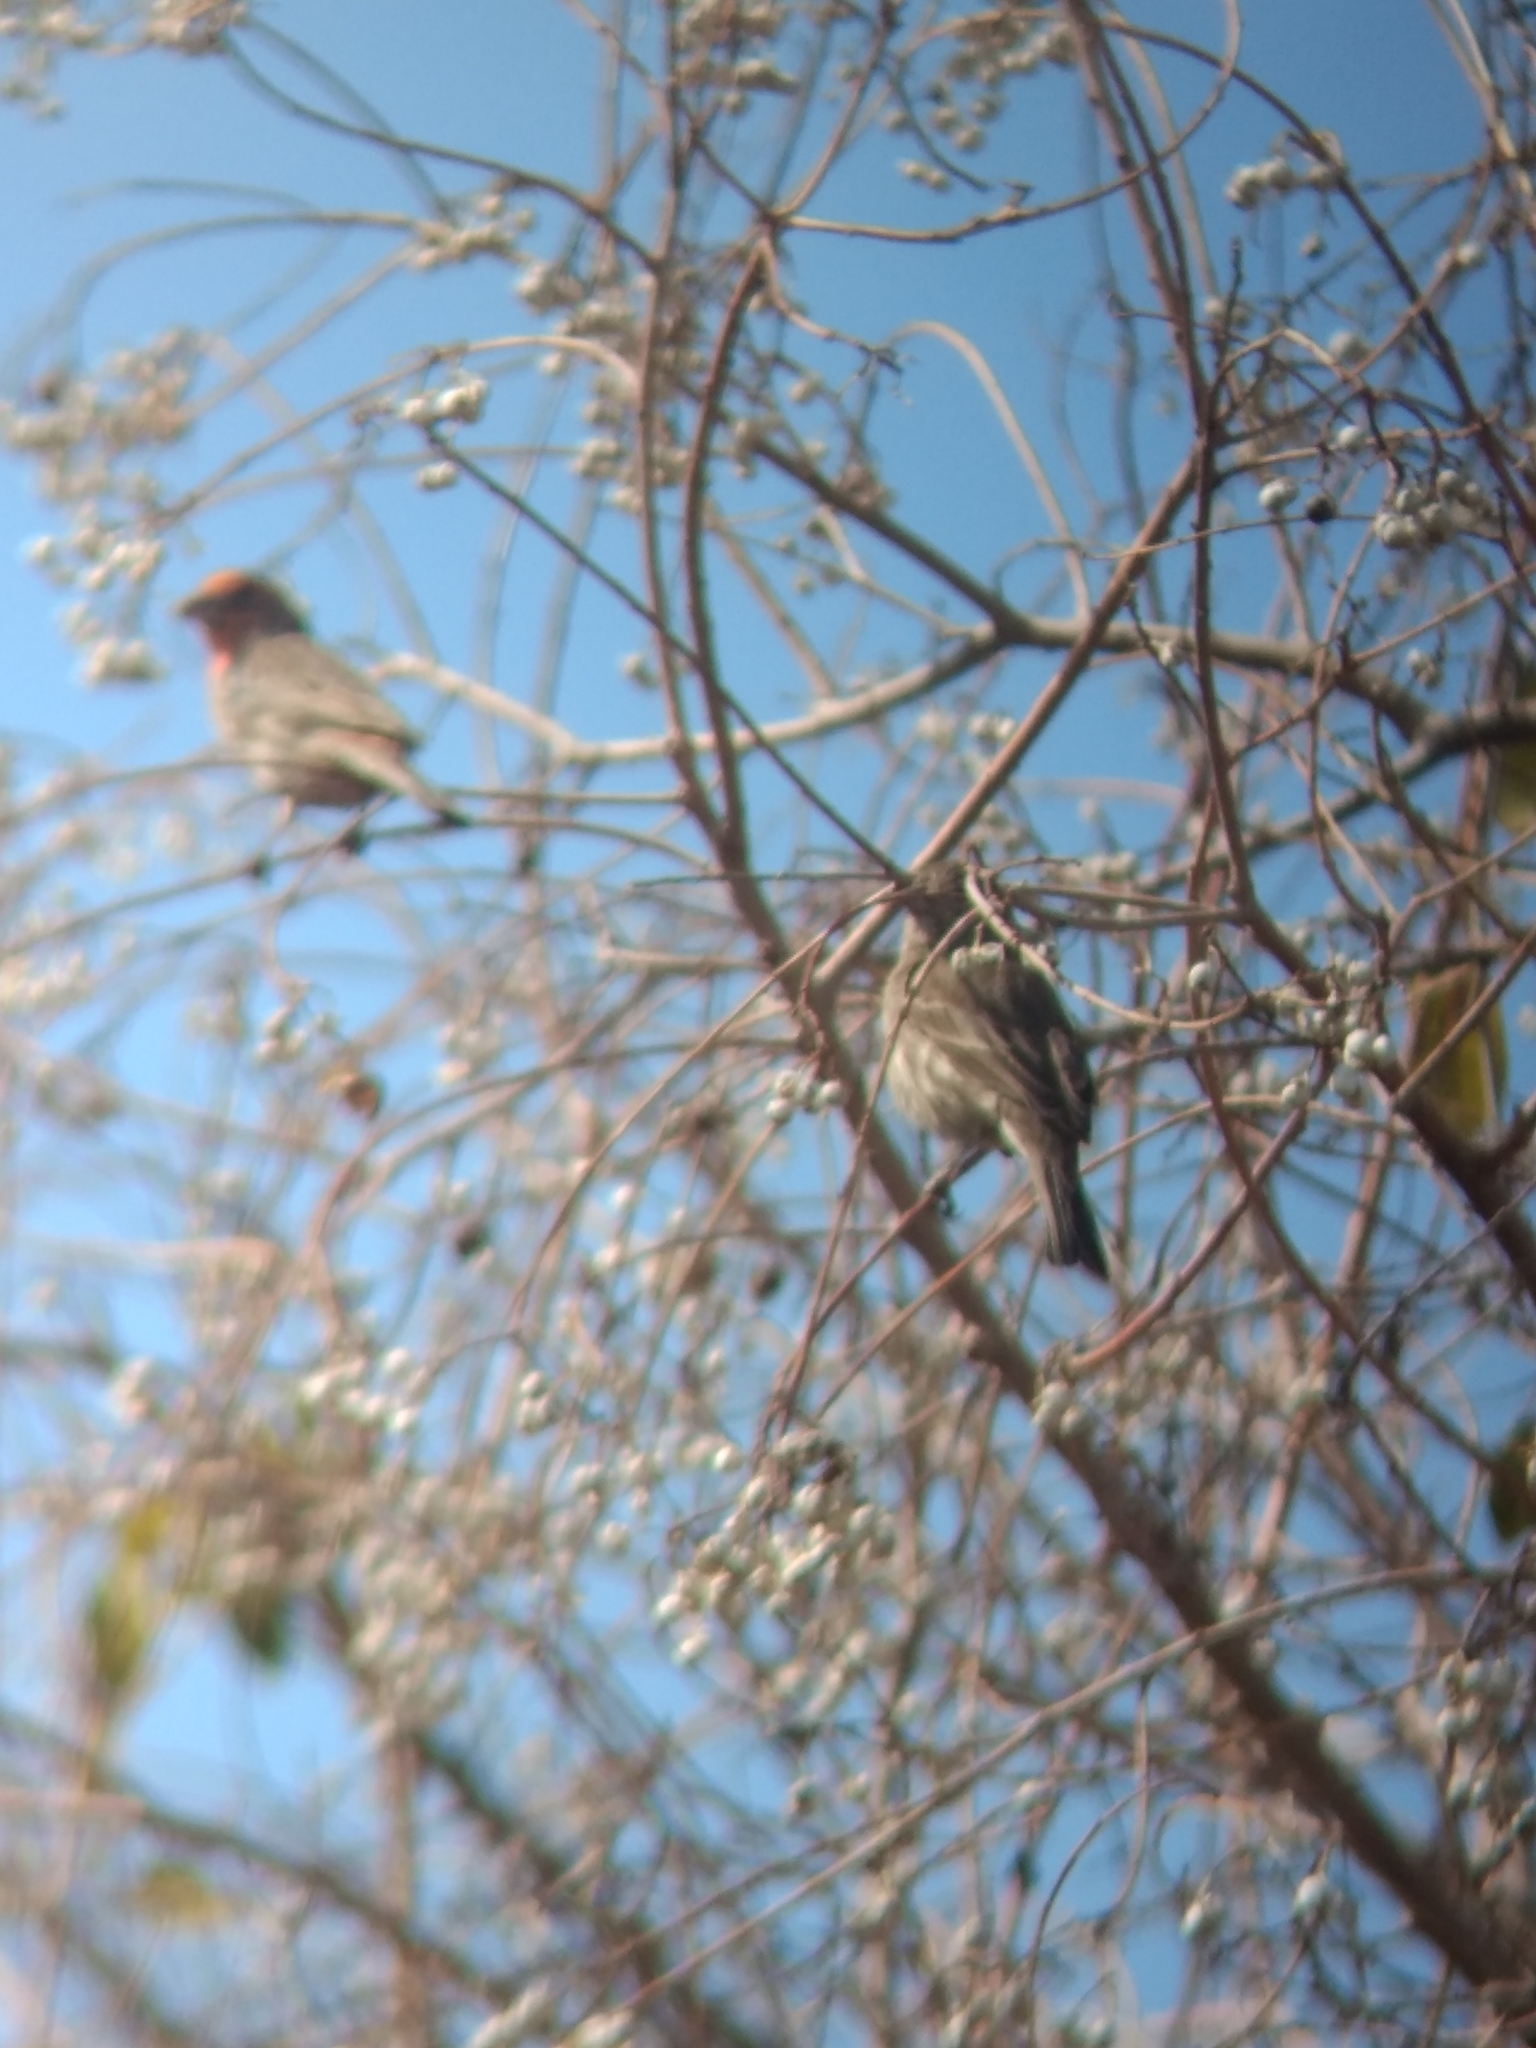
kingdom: Animalia
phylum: Chordata
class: Aves
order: Passeriformes
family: Fringillidae
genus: Haemorhous
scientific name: Haemorhous mexicanus
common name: House finch
